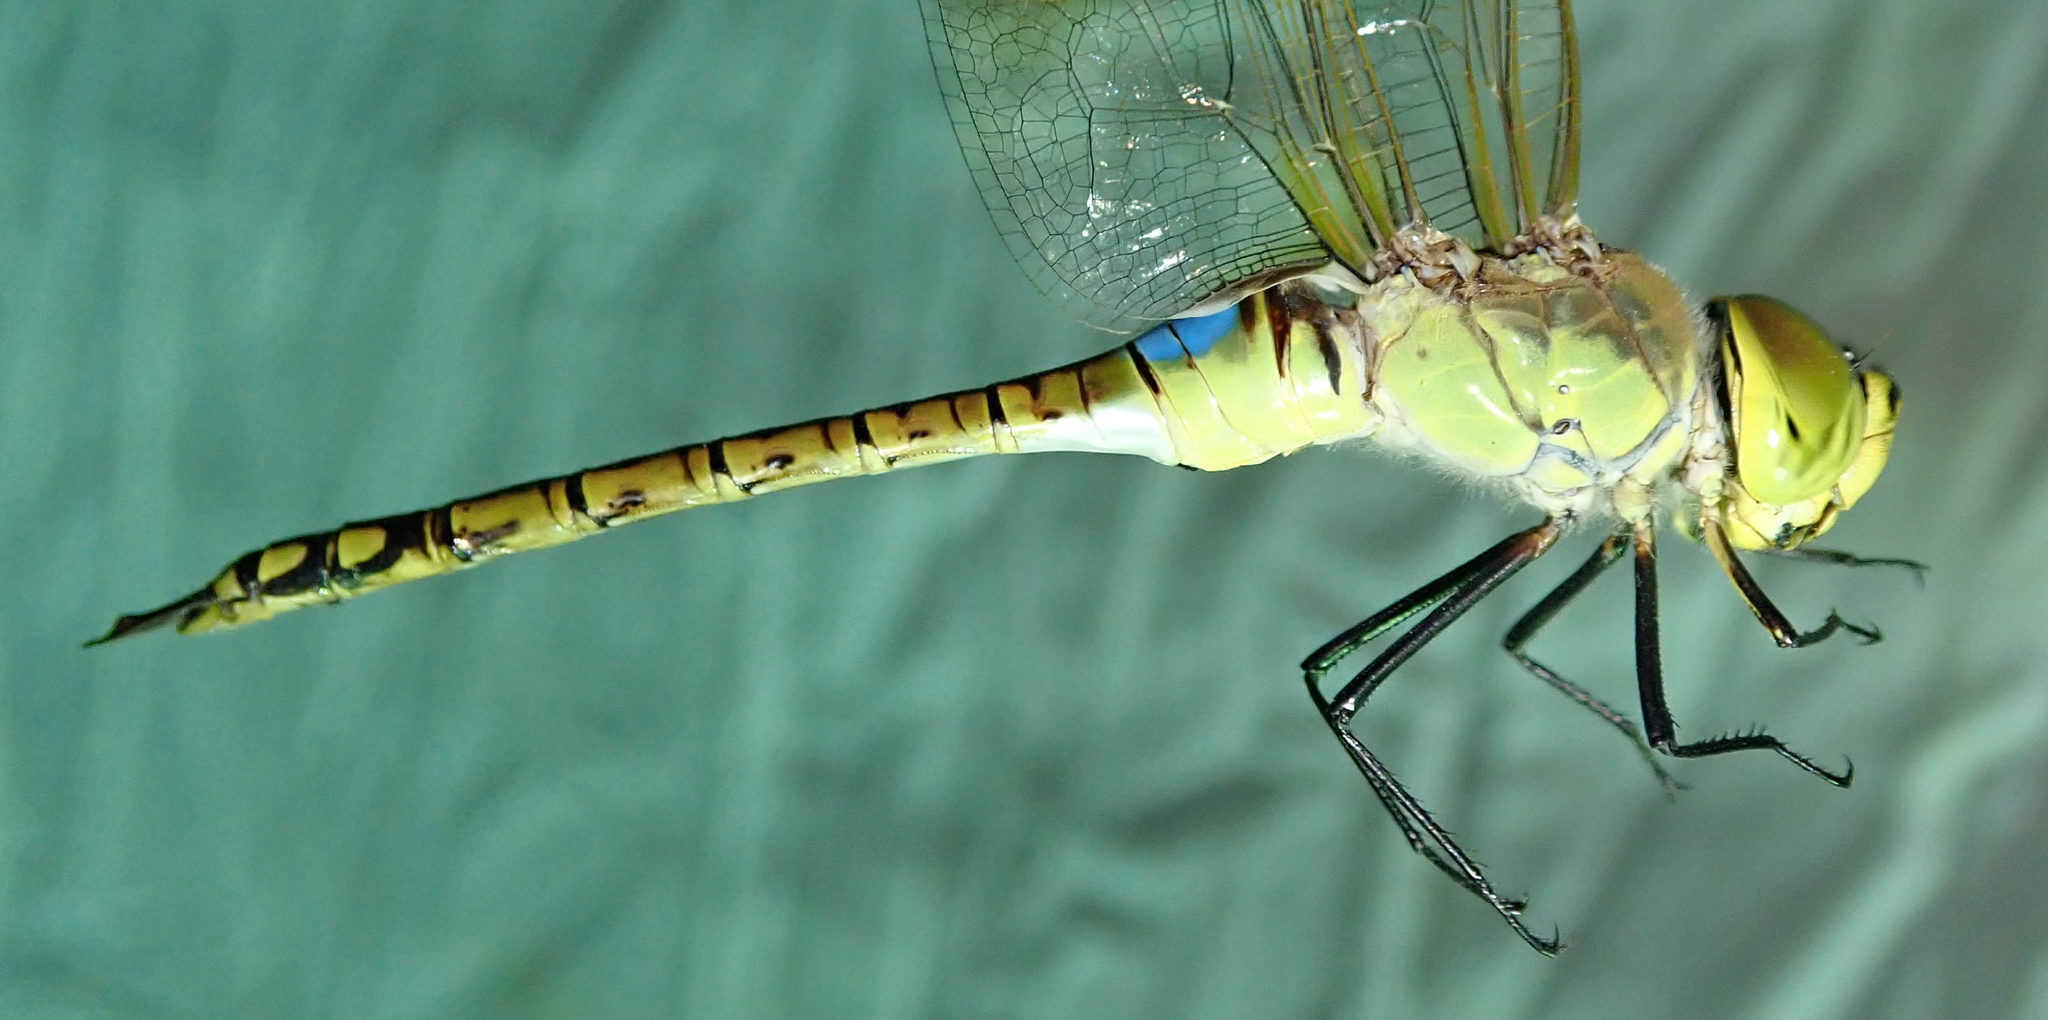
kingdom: Animalia
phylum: Arthropoda
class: Insecta
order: Odonata
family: Aeshnidae
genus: Anax
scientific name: Anax ephippiger
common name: Vagrant emperor
